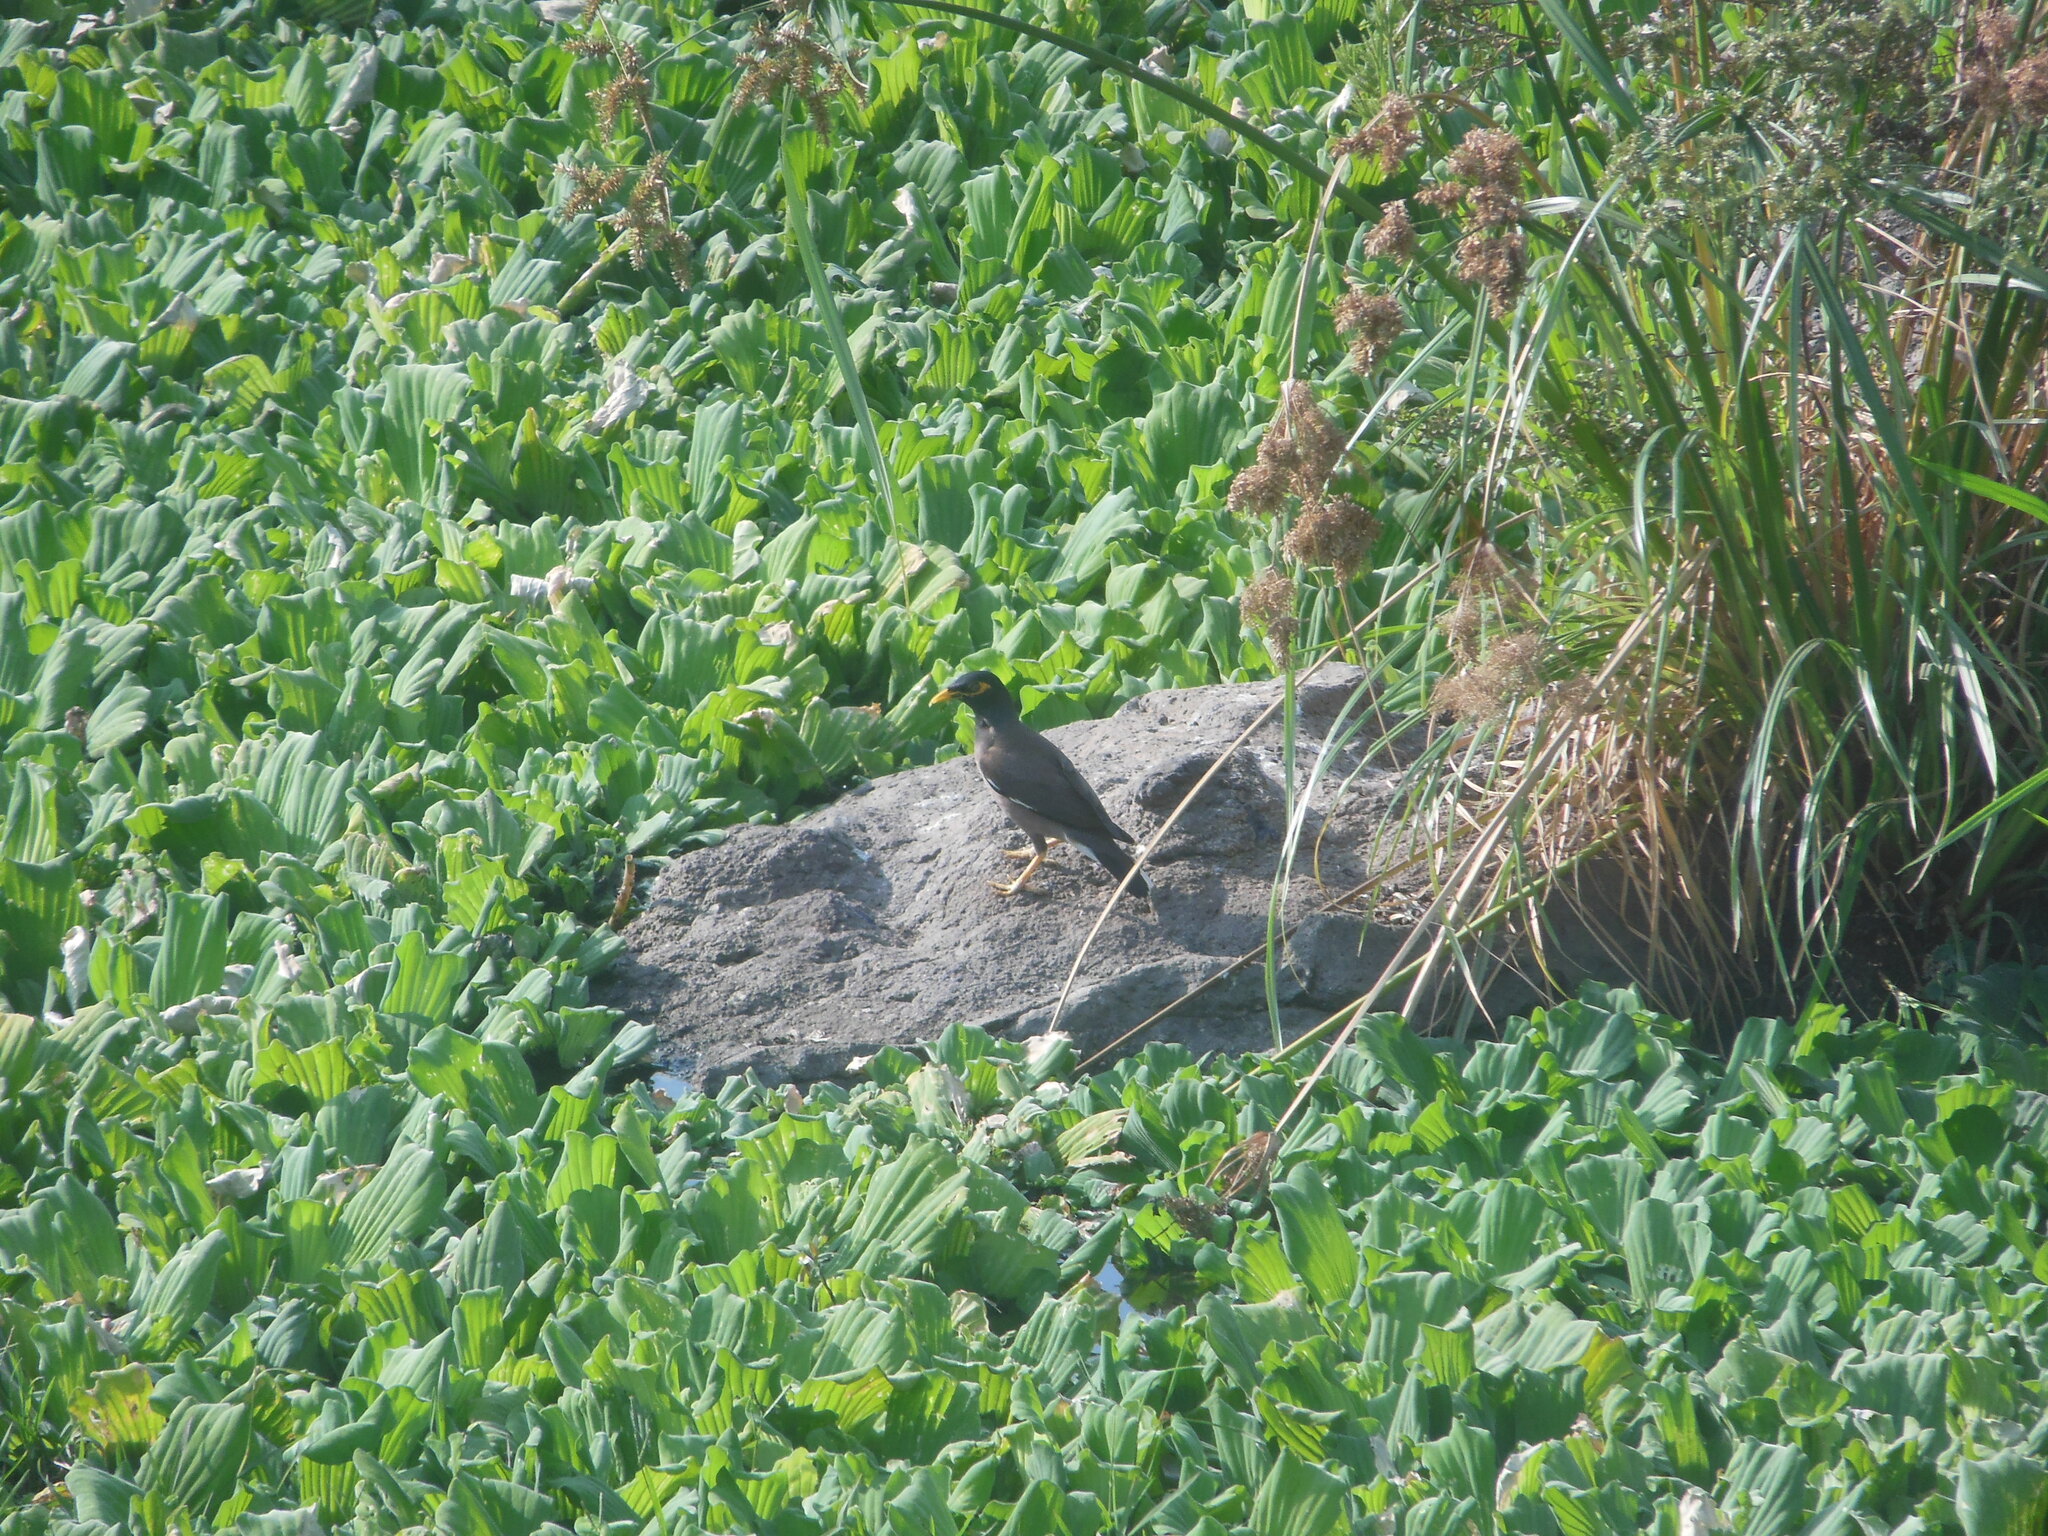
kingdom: Animalia
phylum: Chordata
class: Aves
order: Passeriformes
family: Sturnidae
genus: Acridotheres
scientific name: Acridotheres tristis
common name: Common myna
